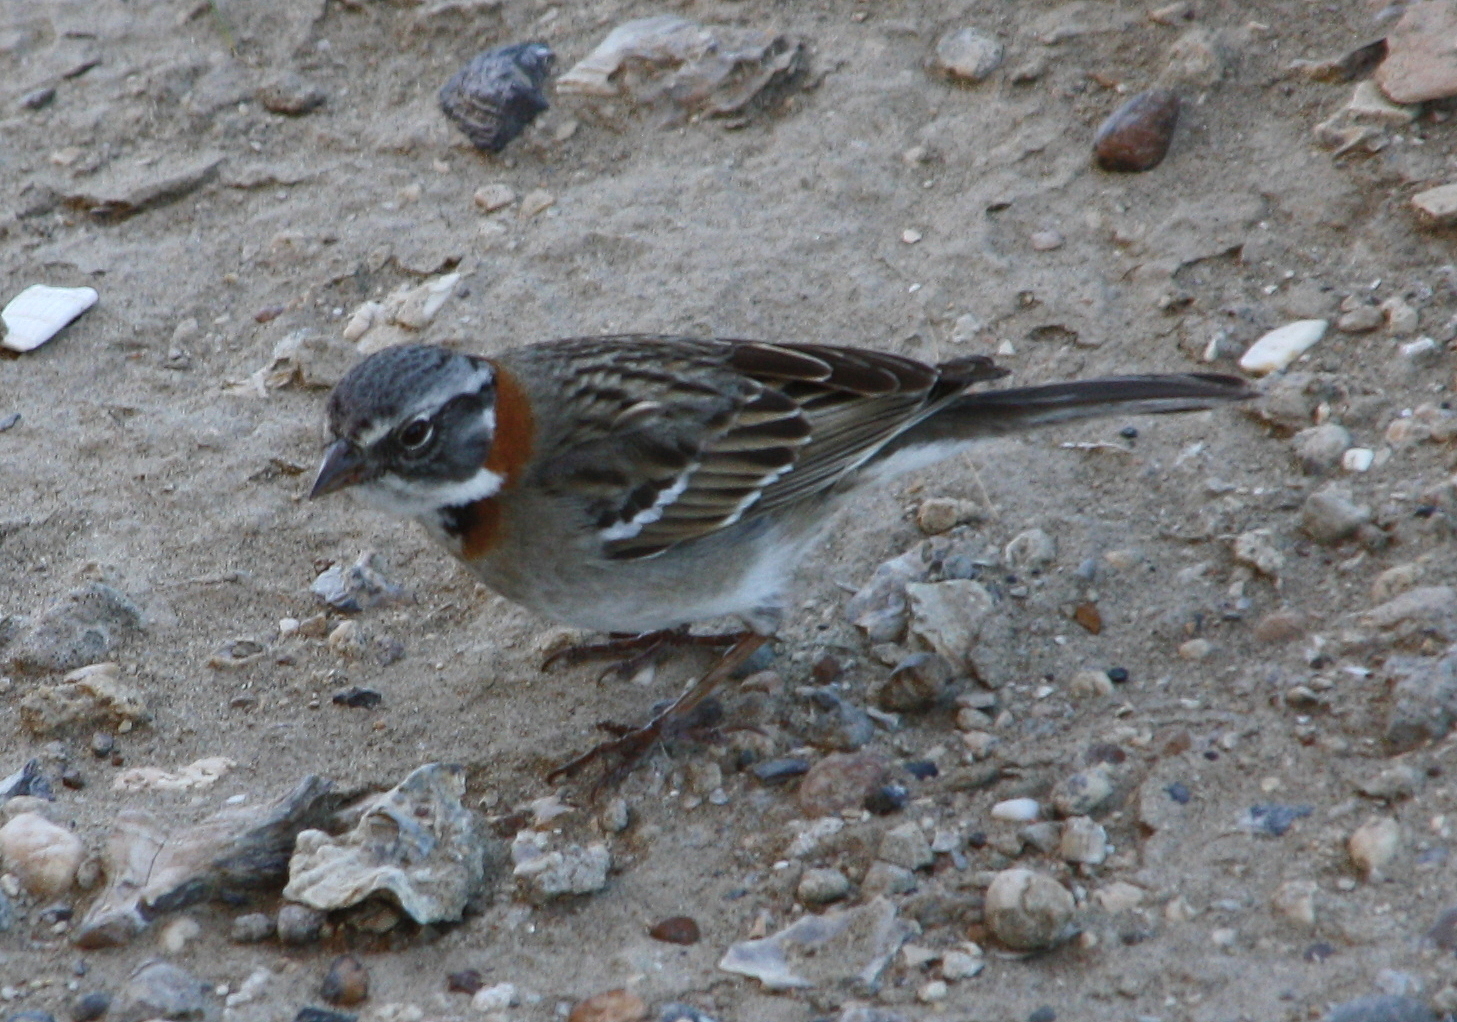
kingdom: Animalia
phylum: Chordata
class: Aves
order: Passeriformes
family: Passerellidae
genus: Zonotrichia
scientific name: Zonotrichia capensis
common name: Rufous-collared sparrow
